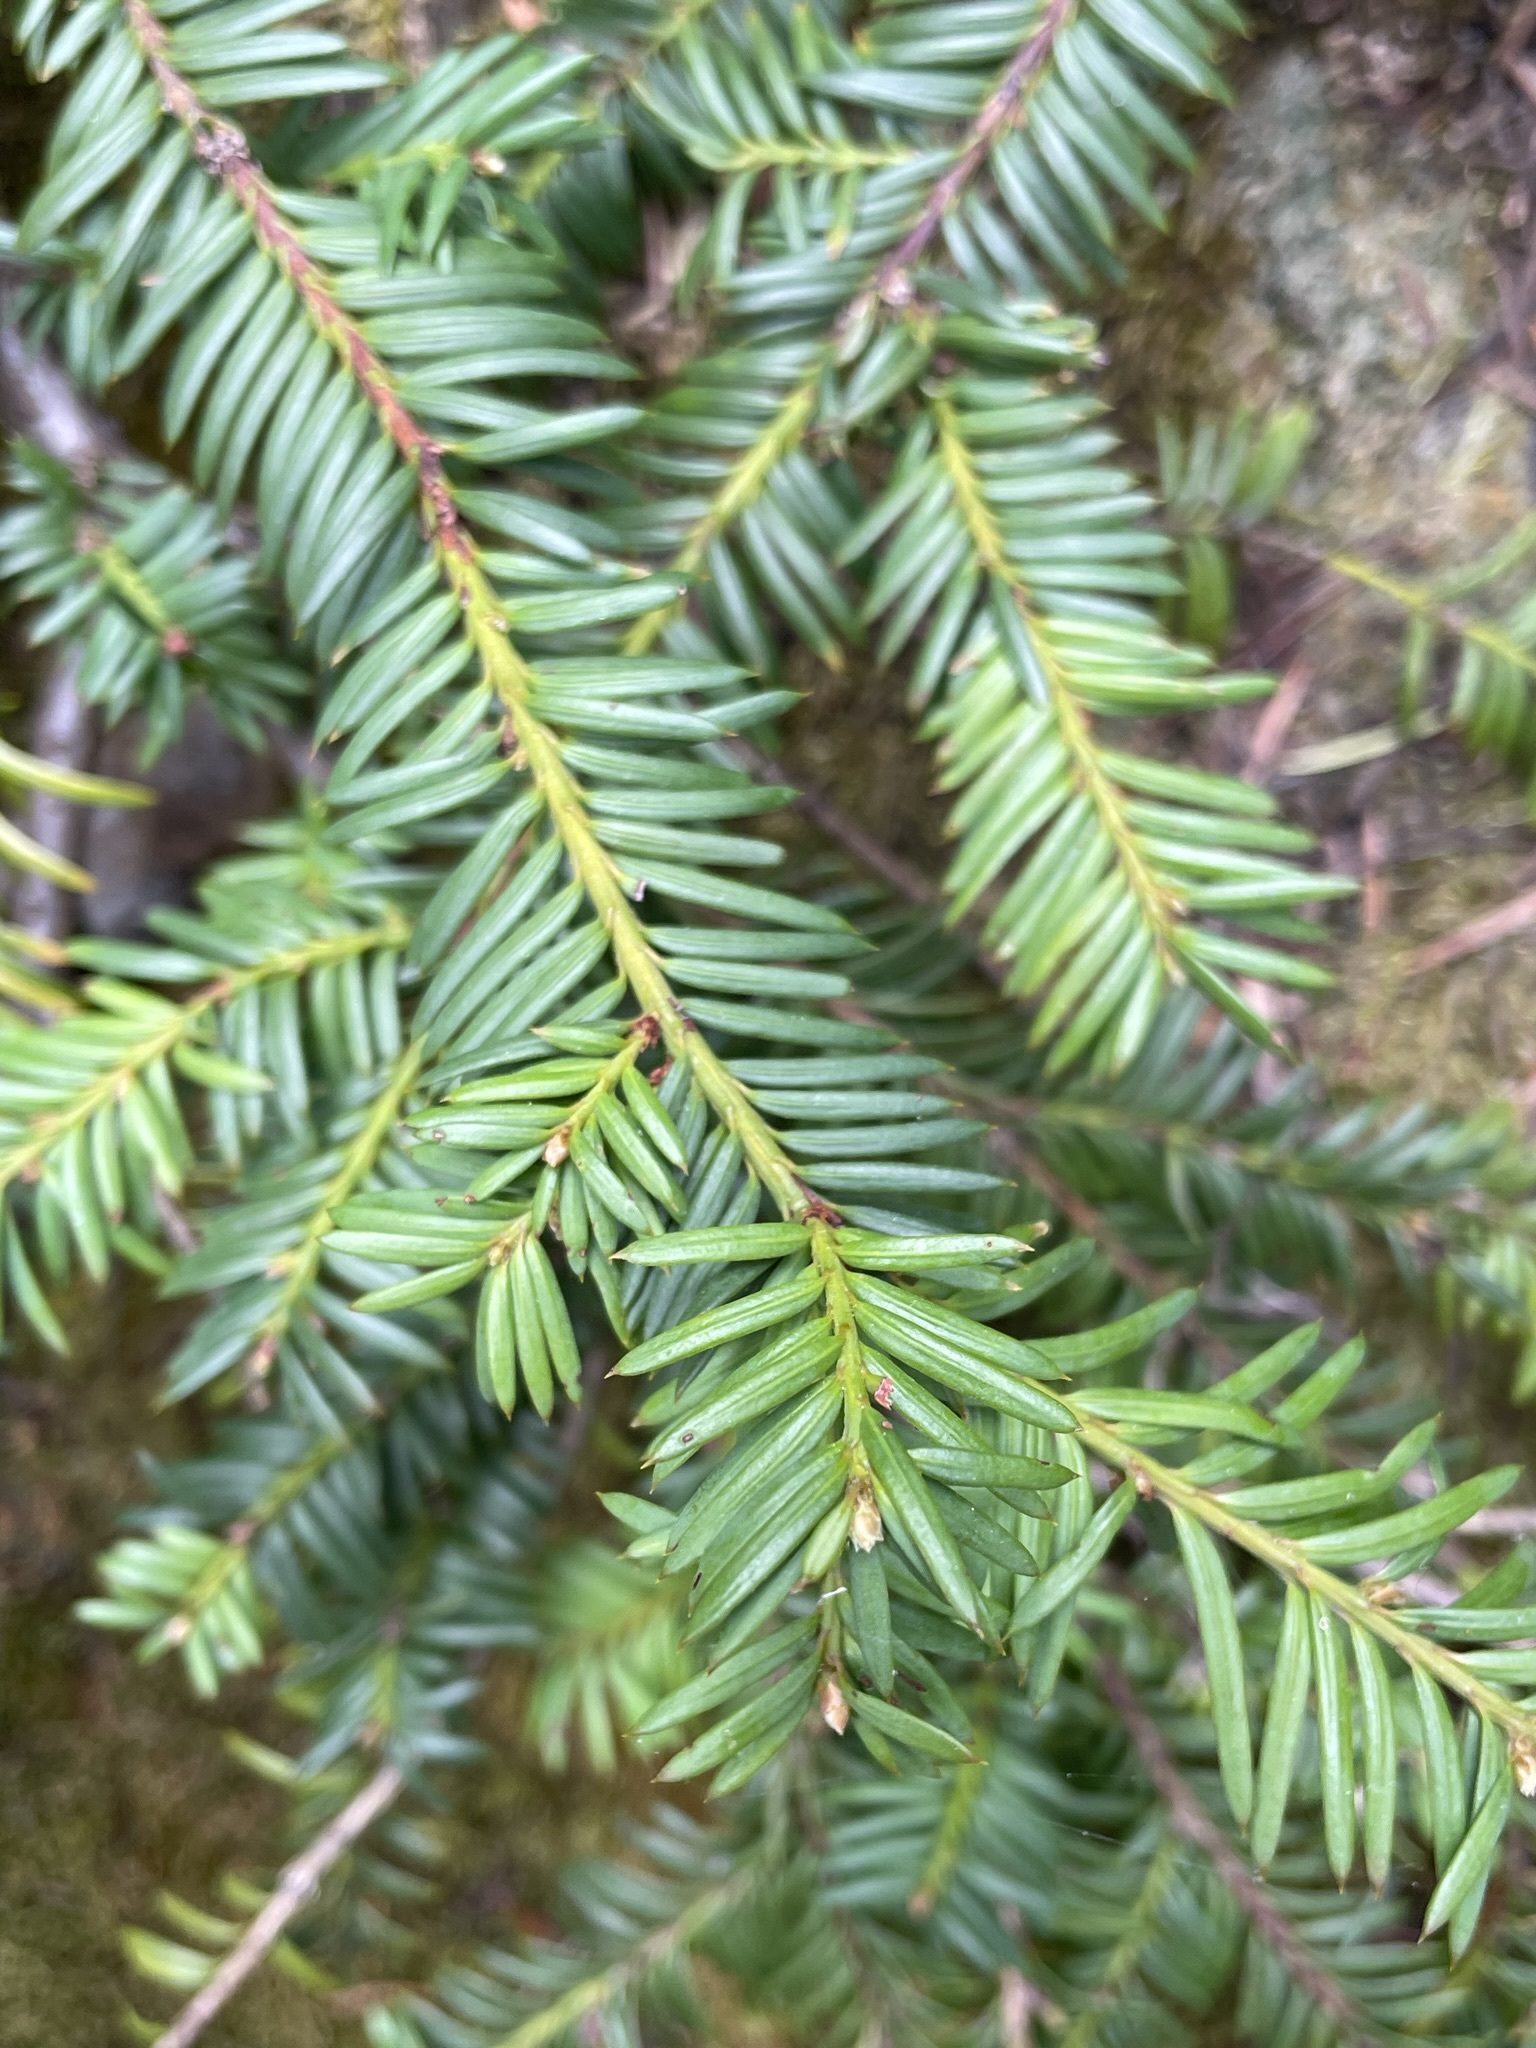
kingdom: Plantae
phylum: Tracheophyta
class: Pinopsida
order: Pinales
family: Taxaceae
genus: Taxus
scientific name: Taxus brevifolia
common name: Pacific yew
